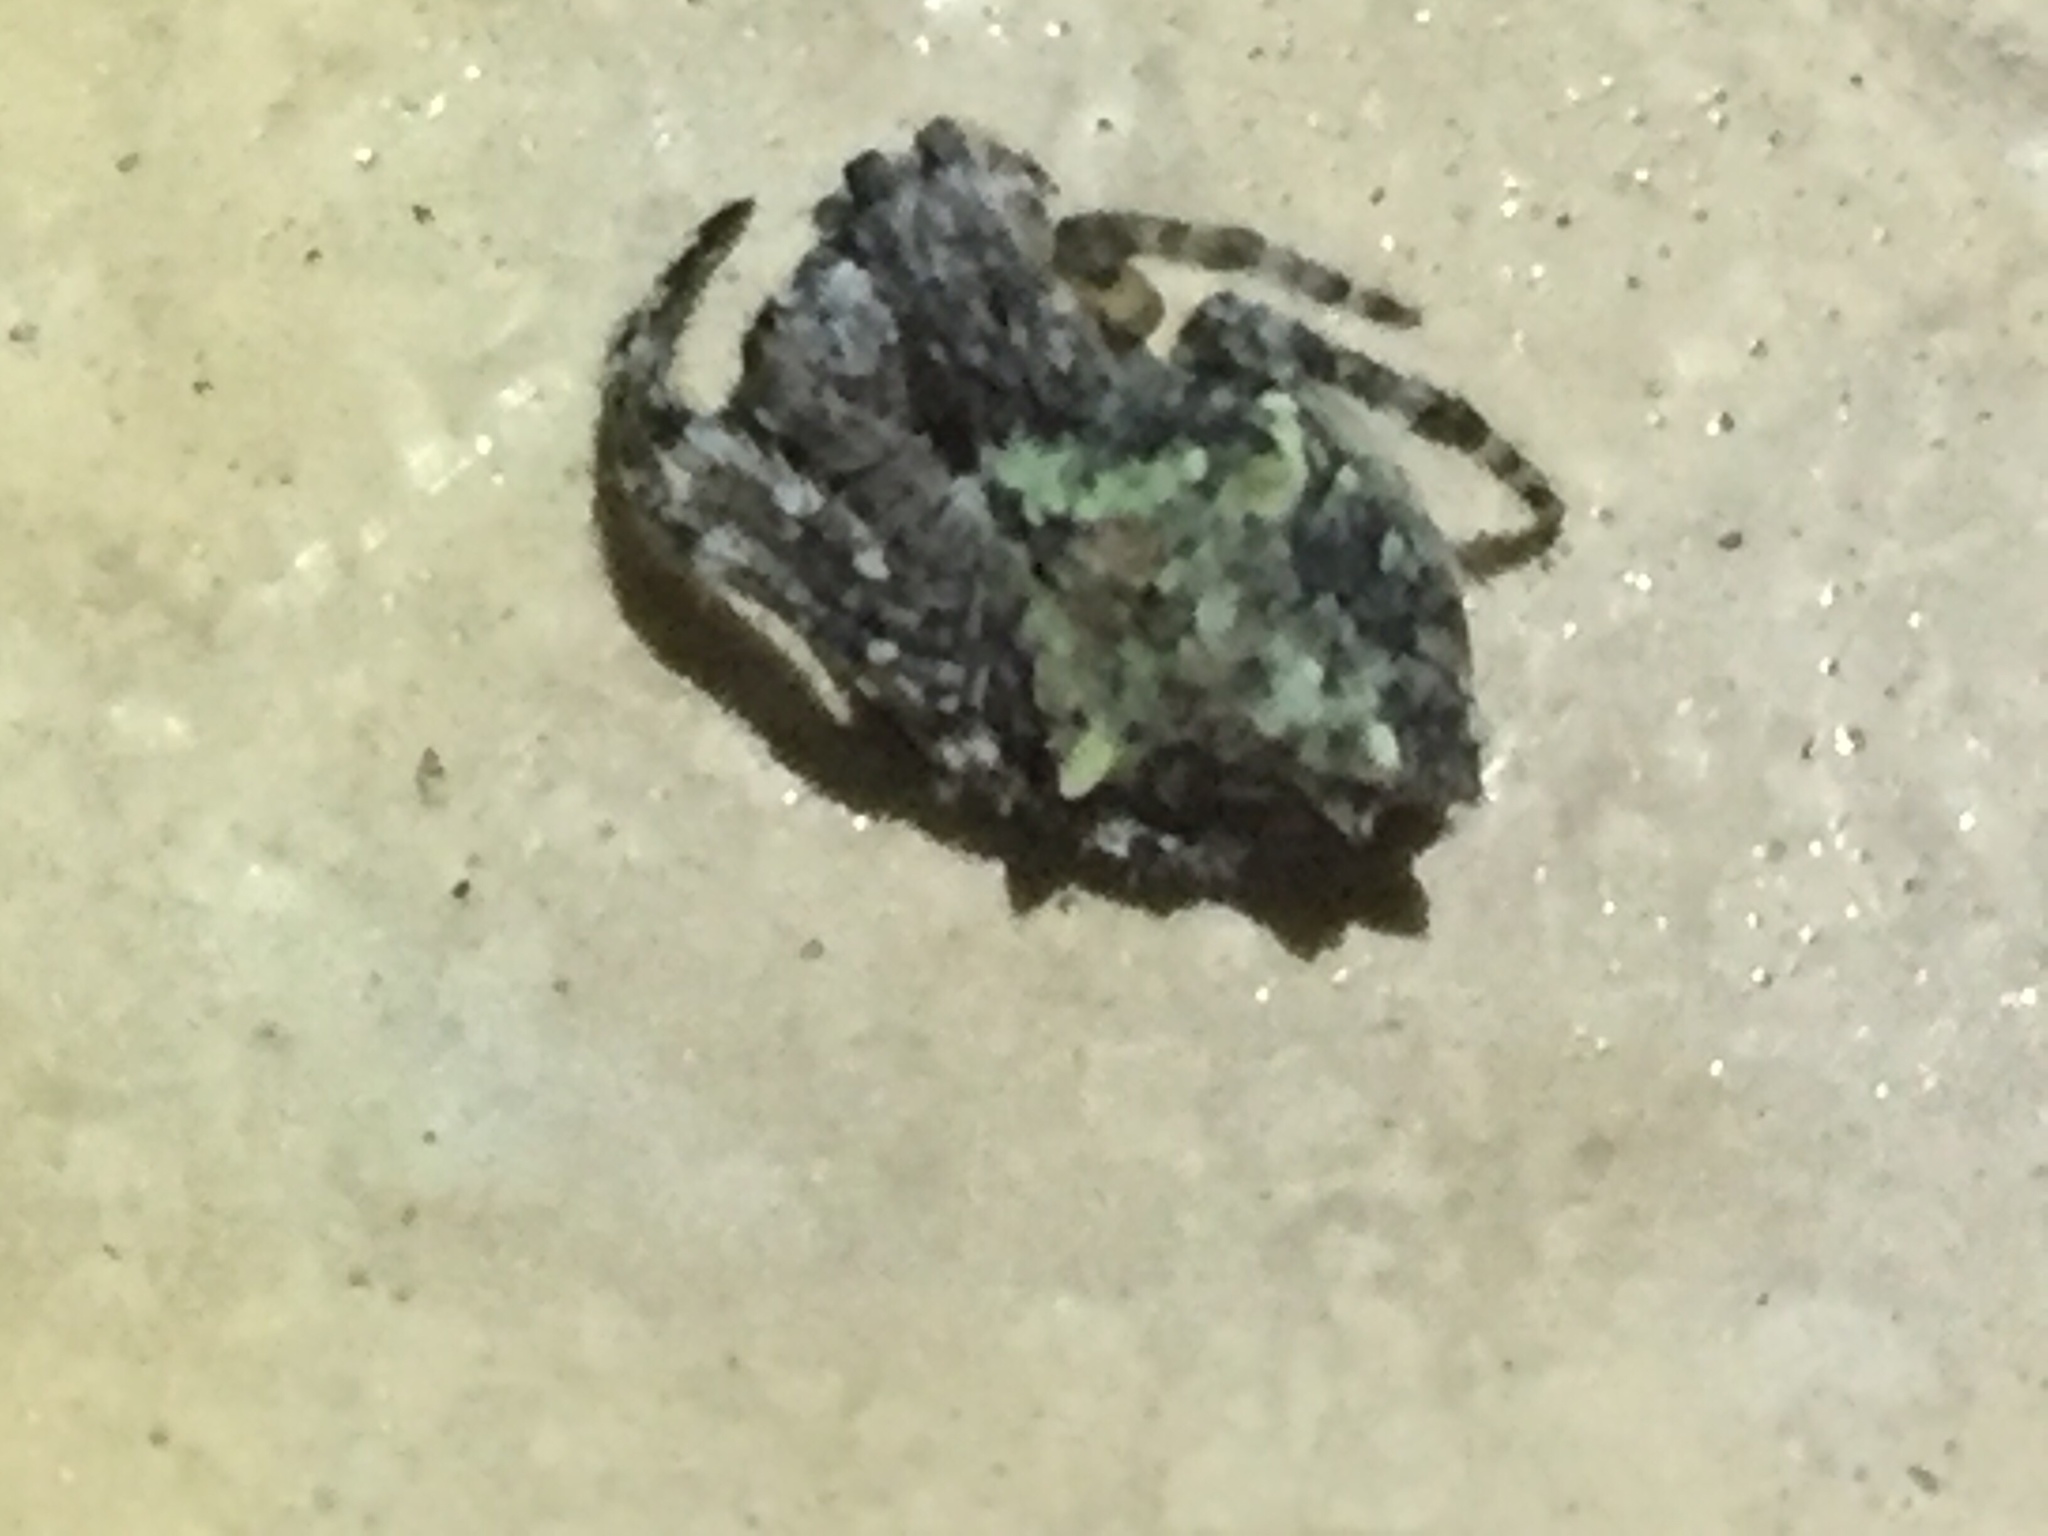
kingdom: Animalia
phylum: Arthropoda
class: Arachnida
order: Araneae
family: Araneidae
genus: Eriophora
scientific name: Eriophora pustulosa
